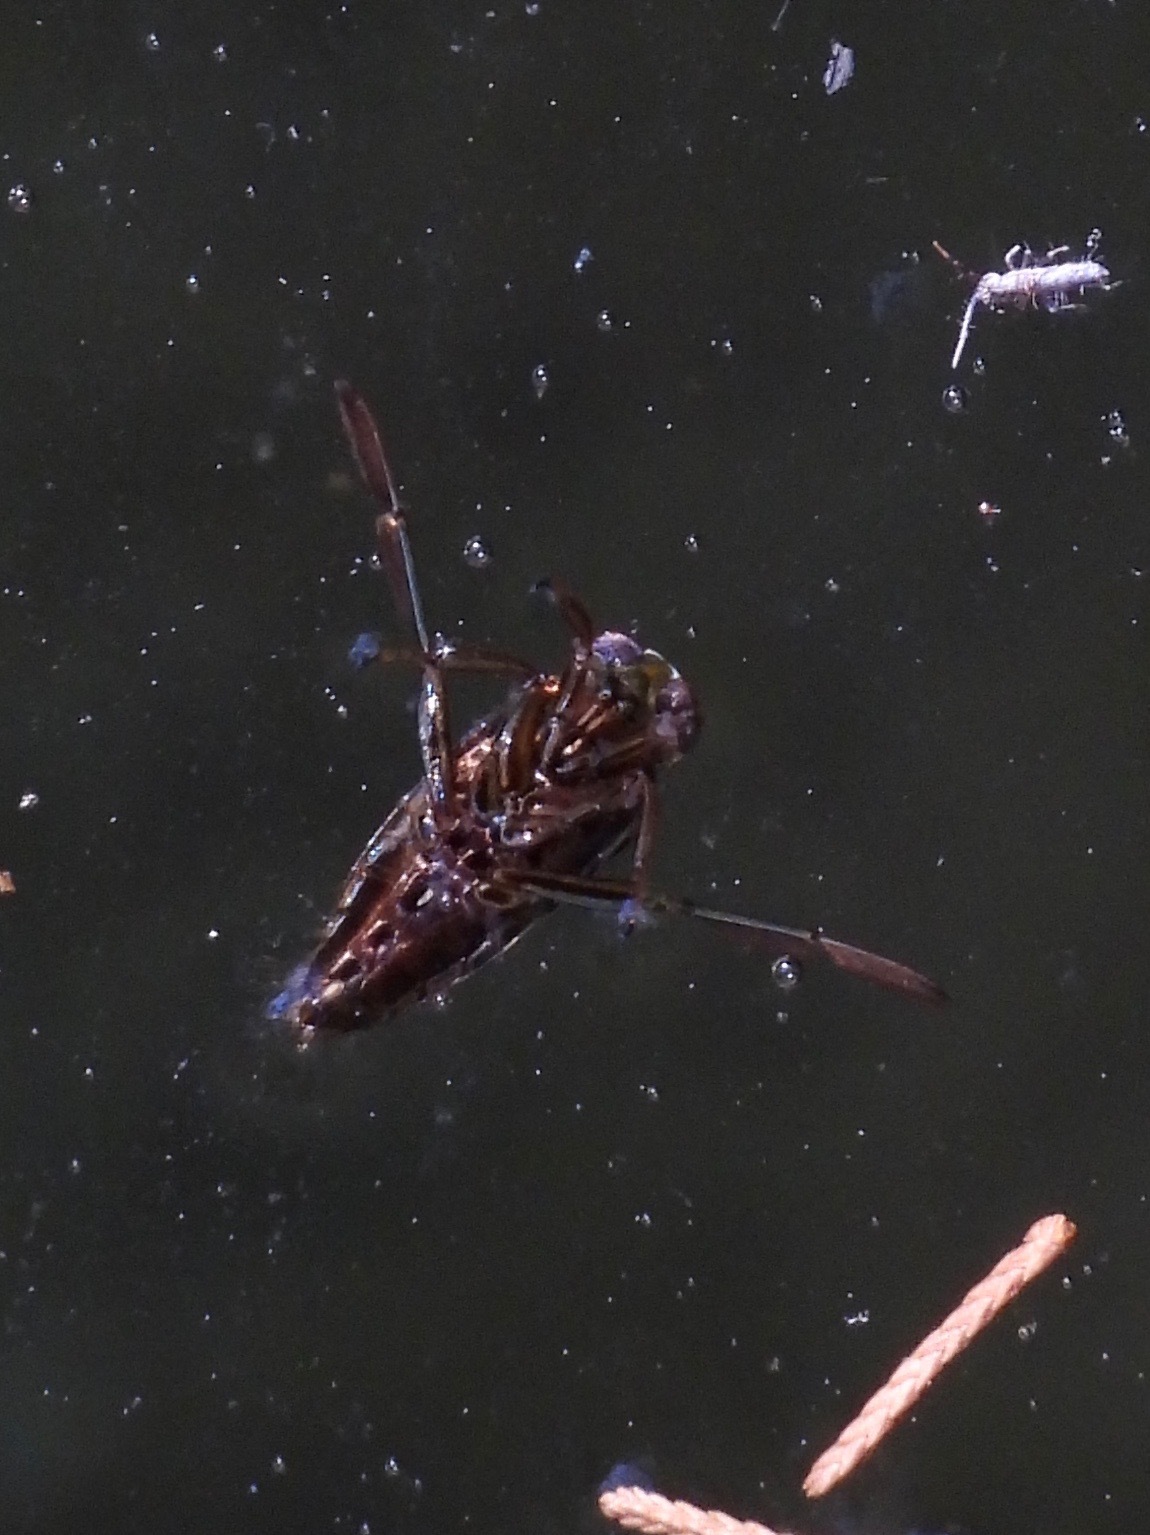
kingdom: Animalia
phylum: Arthropoda
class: Insecta
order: Hemiptera
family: Notonectidae
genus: Notonecta
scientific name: Notonecta
